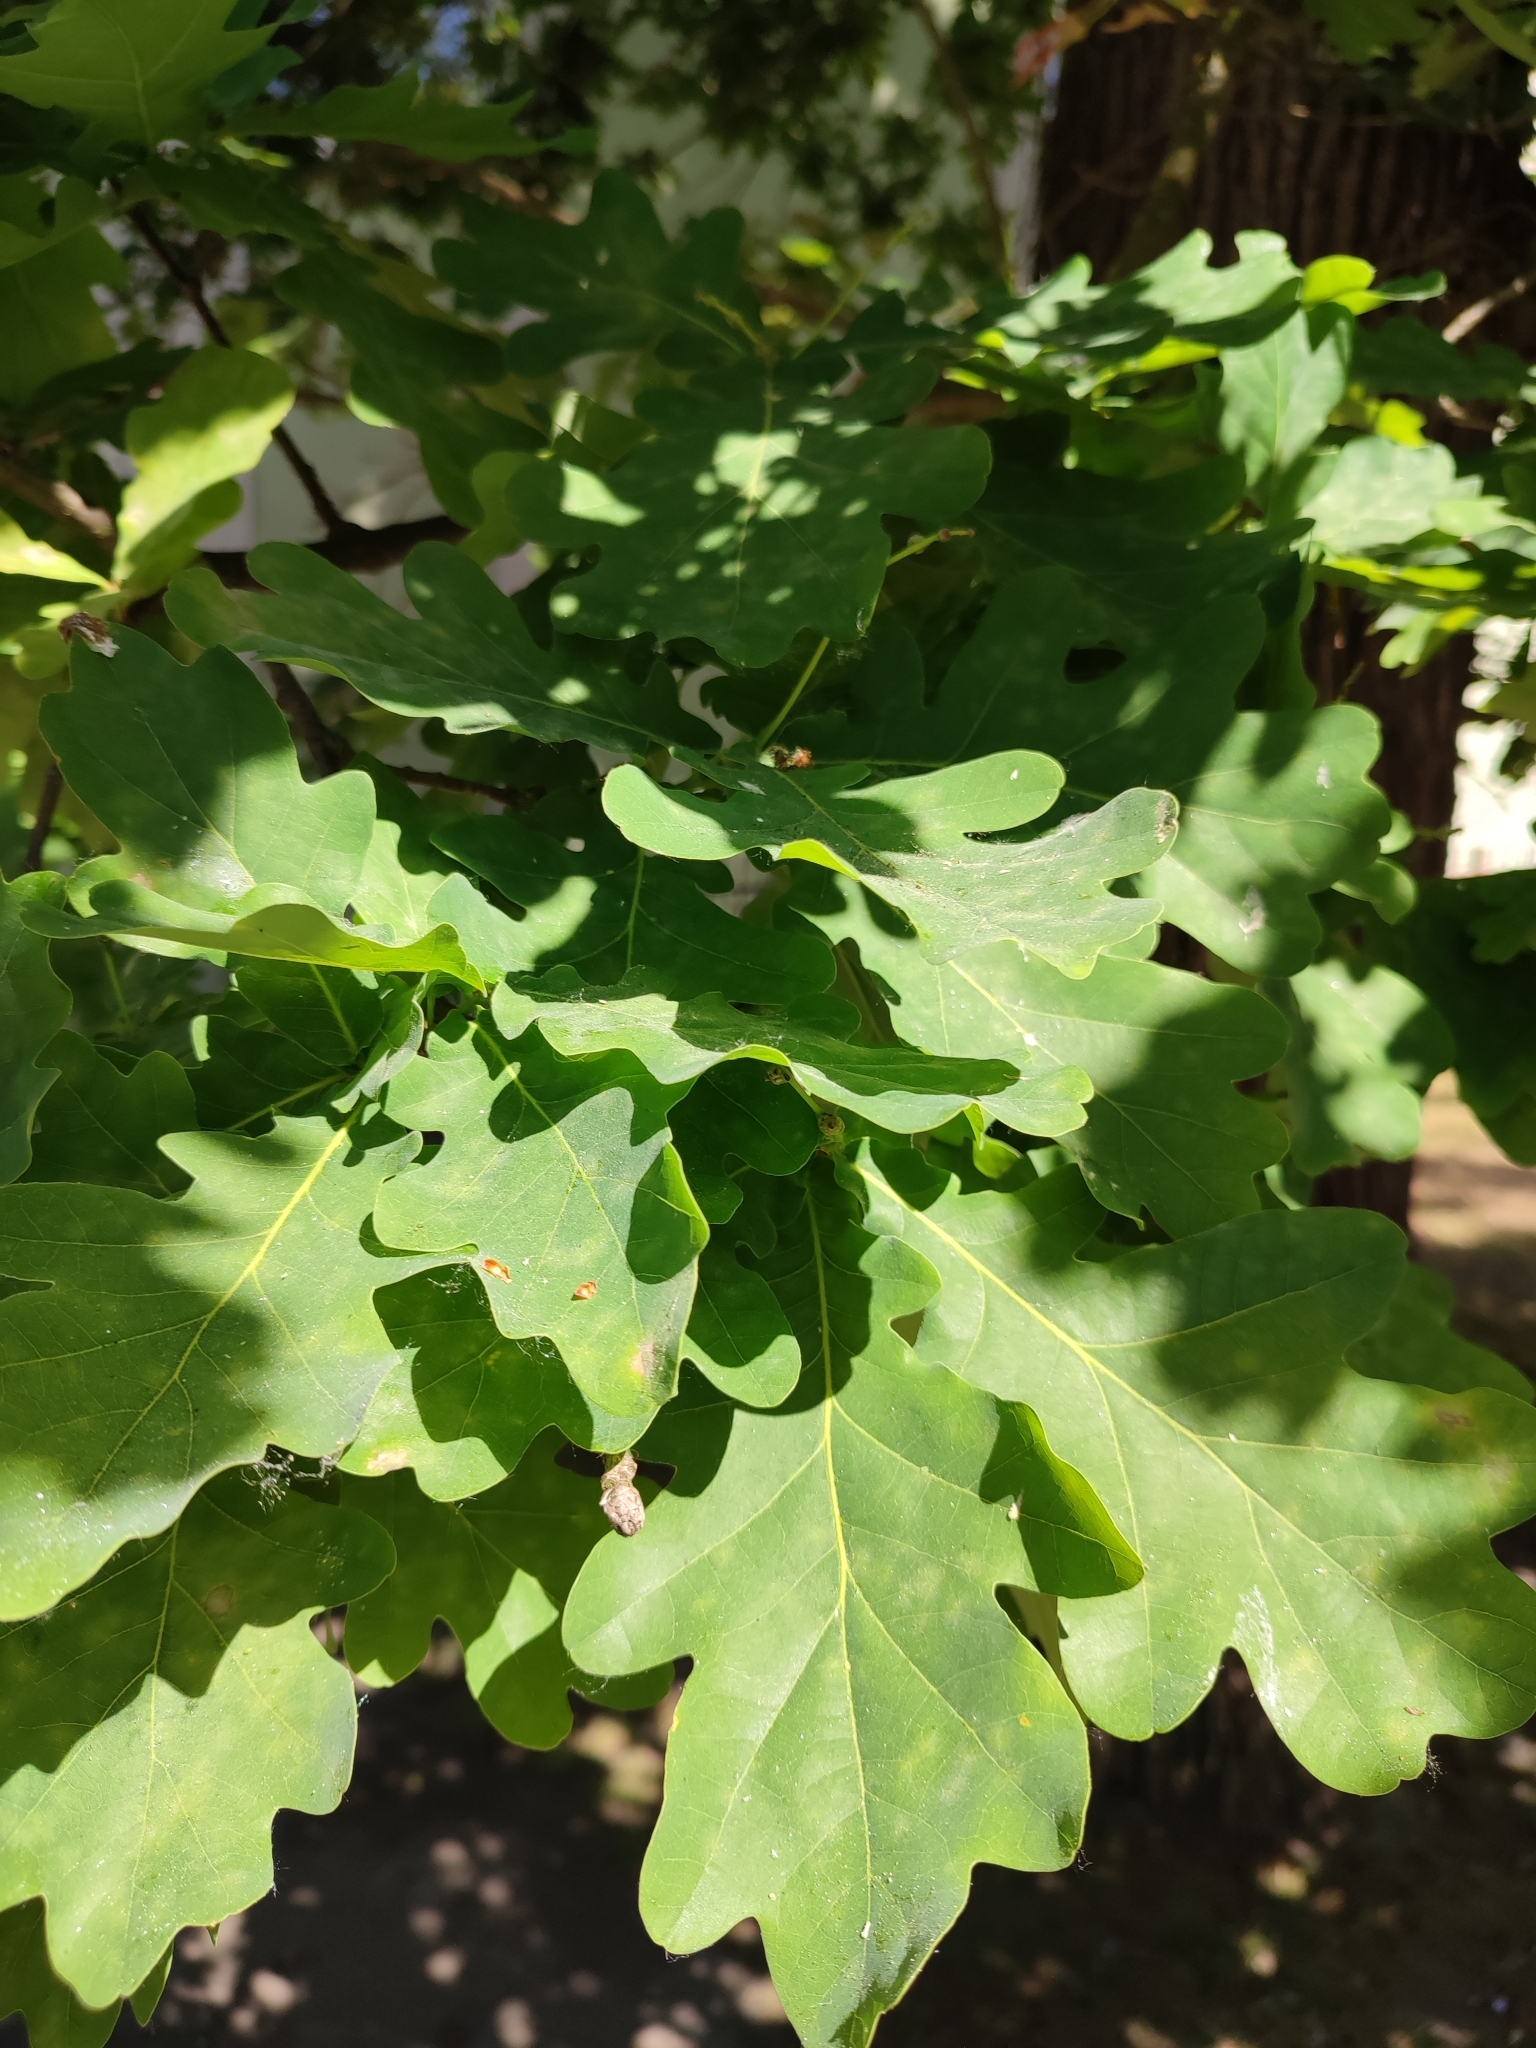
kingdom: Plantae
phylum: Tracheophyta
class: Magnoliopsida
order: Fagales
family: Fagaceae
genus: Quercus
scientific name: Quercus robur
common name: Pedunculate oak
